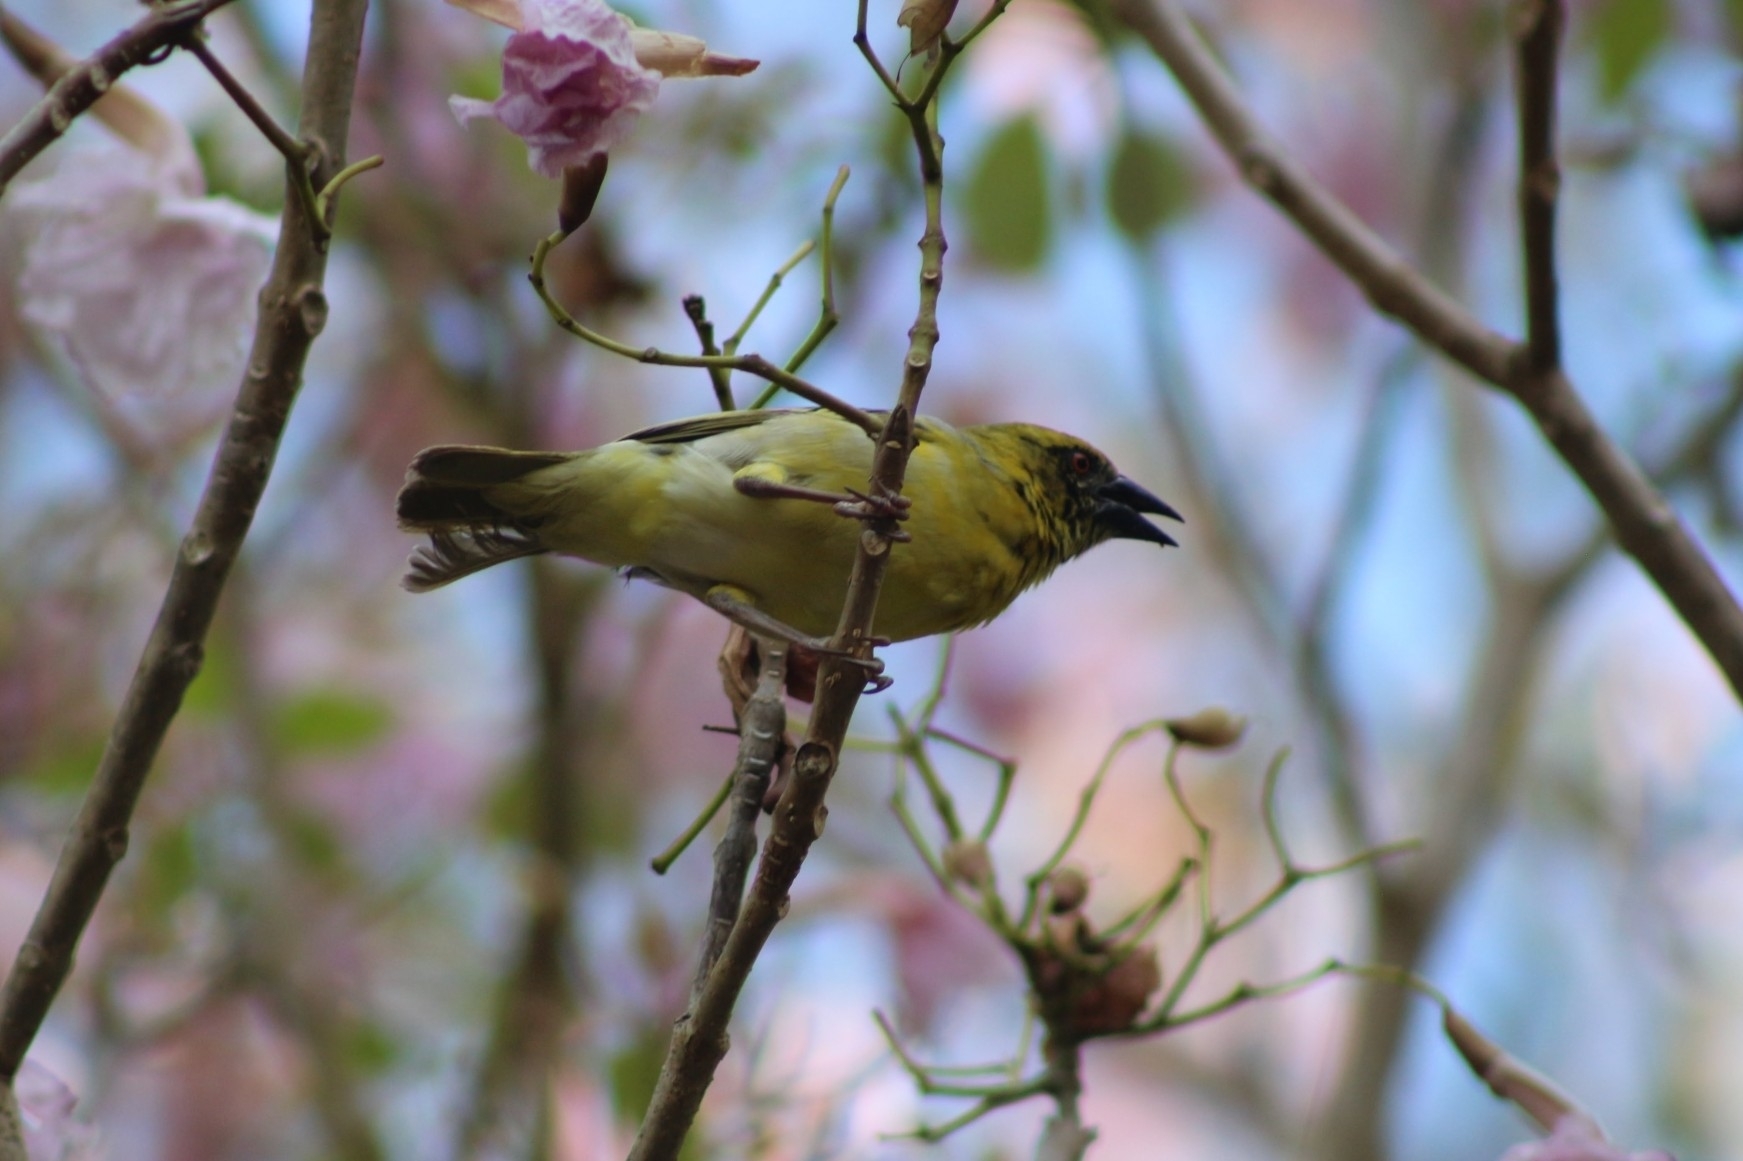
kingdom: Animalia
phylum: Chordata
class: Aves
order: Passeriformes
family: Ploceidae
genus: Ploceus
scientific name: Ploceus cucullatus
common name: Village weaver
